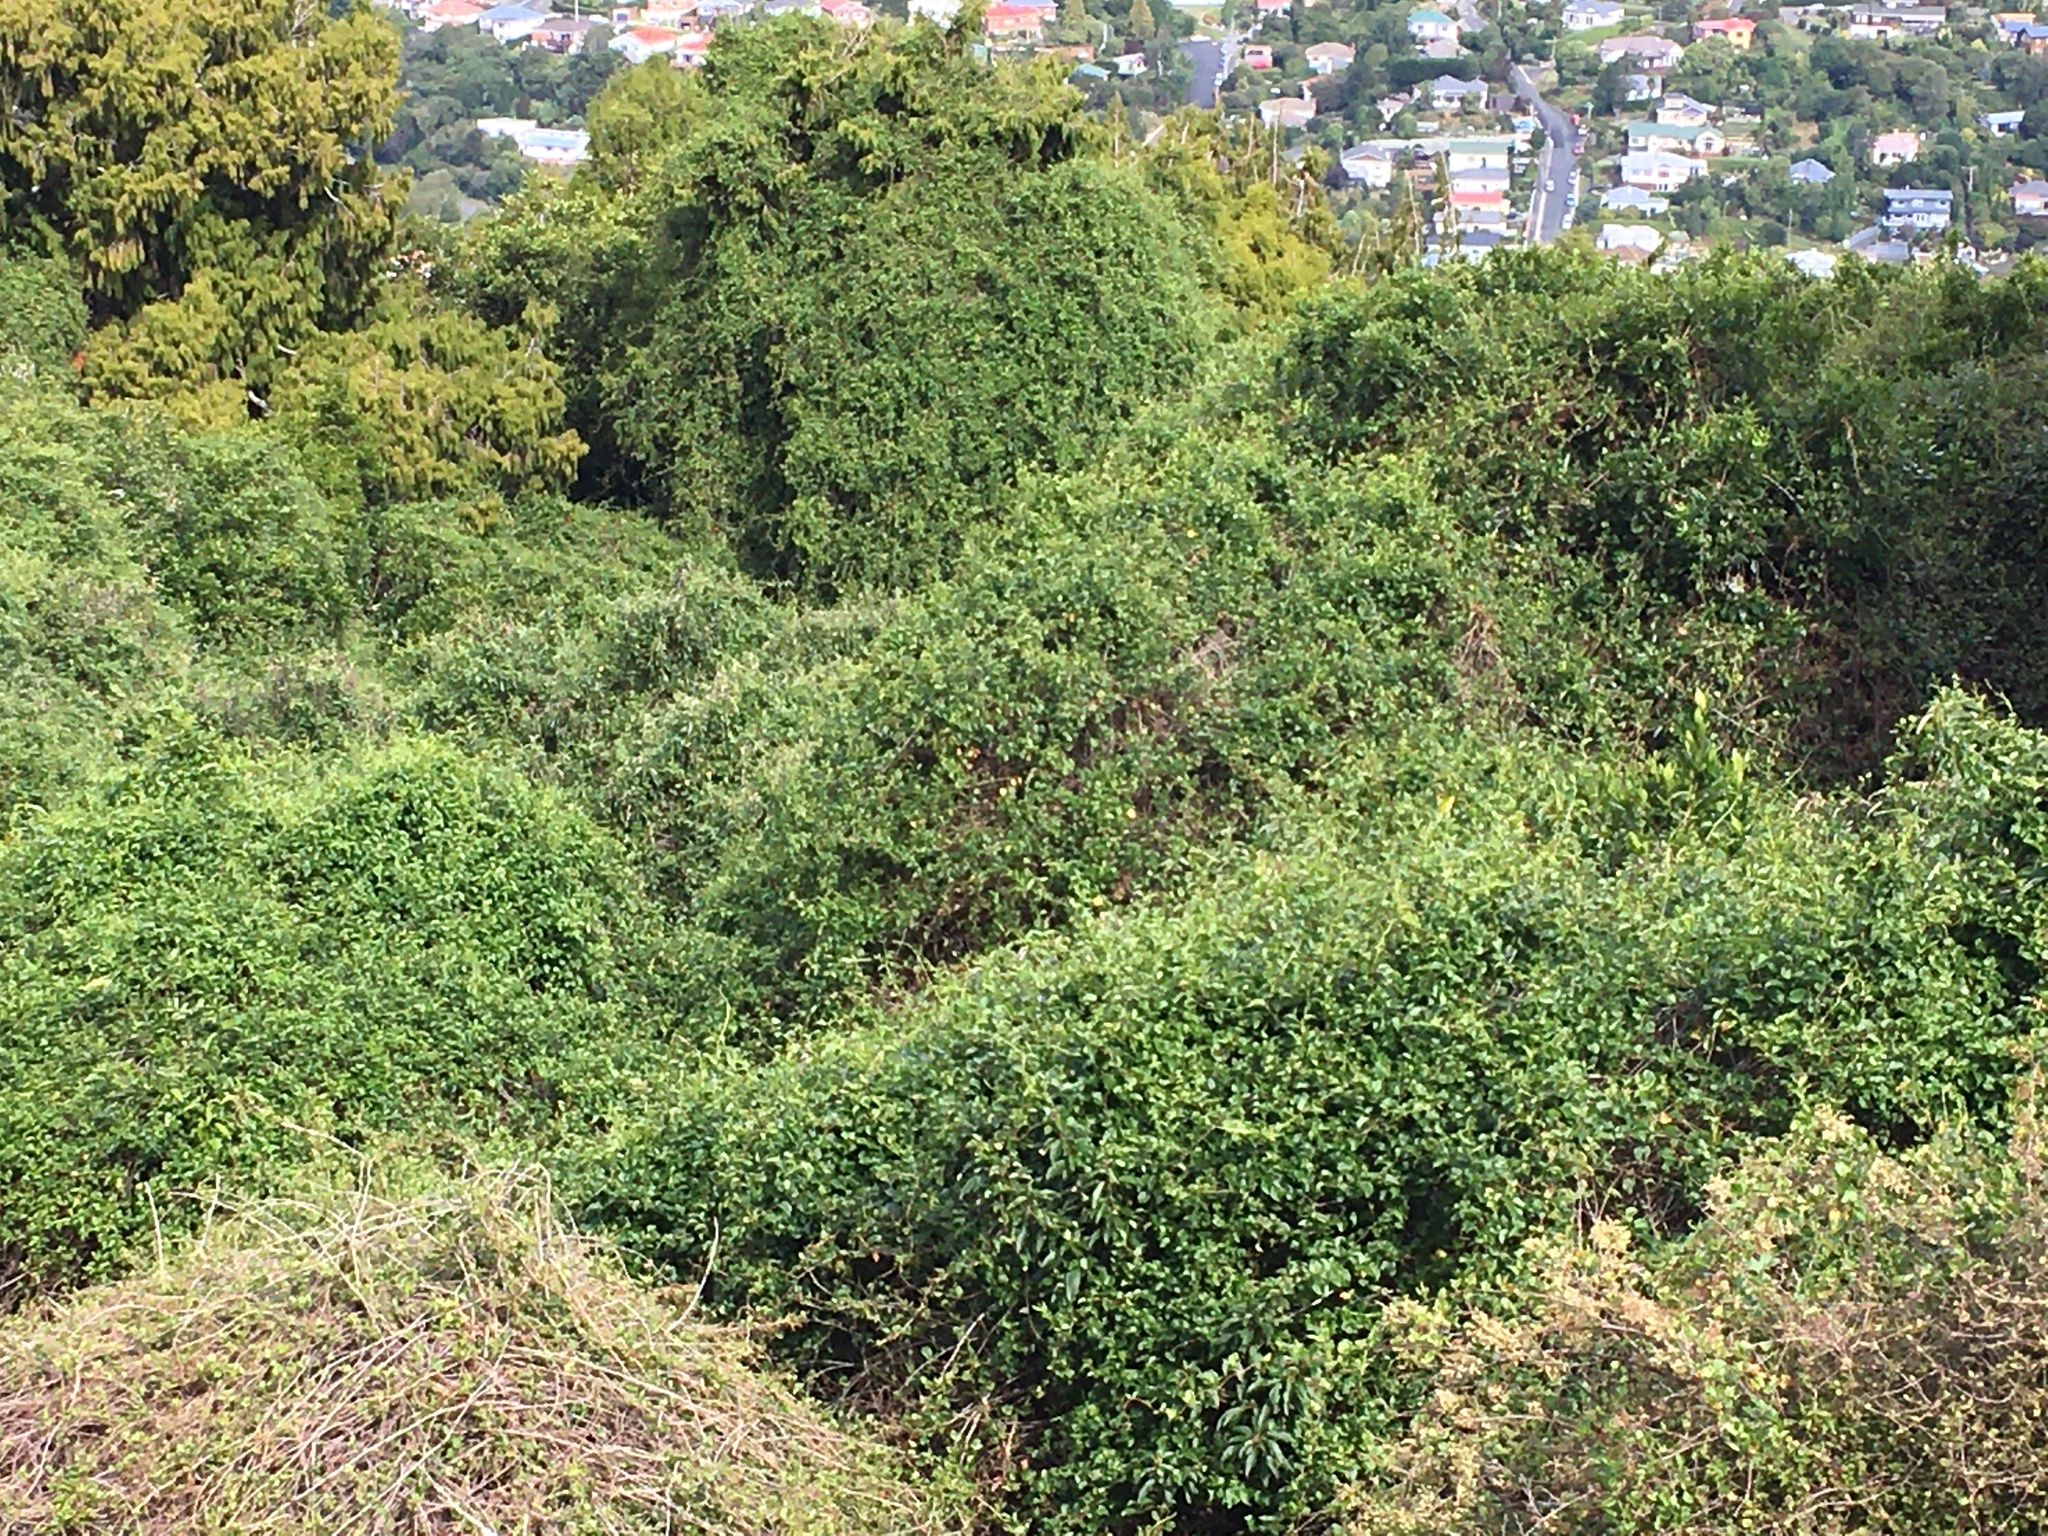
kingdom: Plantae
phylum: Tracheophyta
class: Magnoliopsida
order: Caryophyllales
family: Polygonaceae
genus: Muehlenbeckia
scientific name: Muehlenbeckia australis
